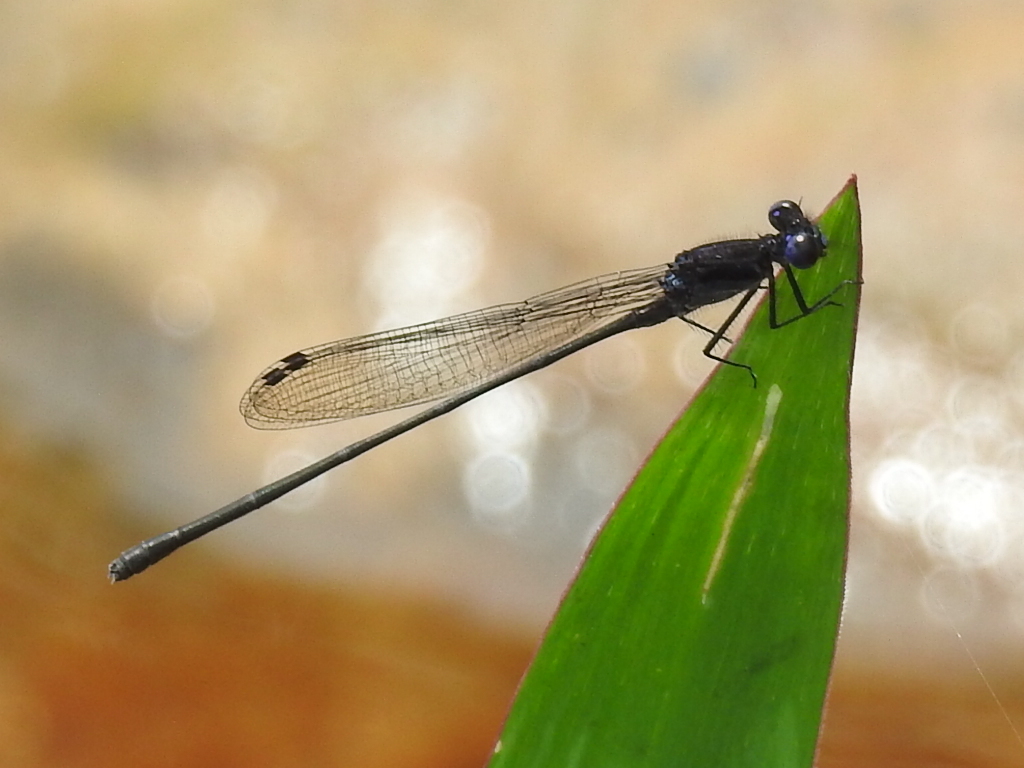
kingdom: Animalia
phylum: Arthropoda
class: Insecta
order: Odonata
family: Coenagrionidae
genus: Argia
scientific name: Argia translata
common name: Dusky dancer
